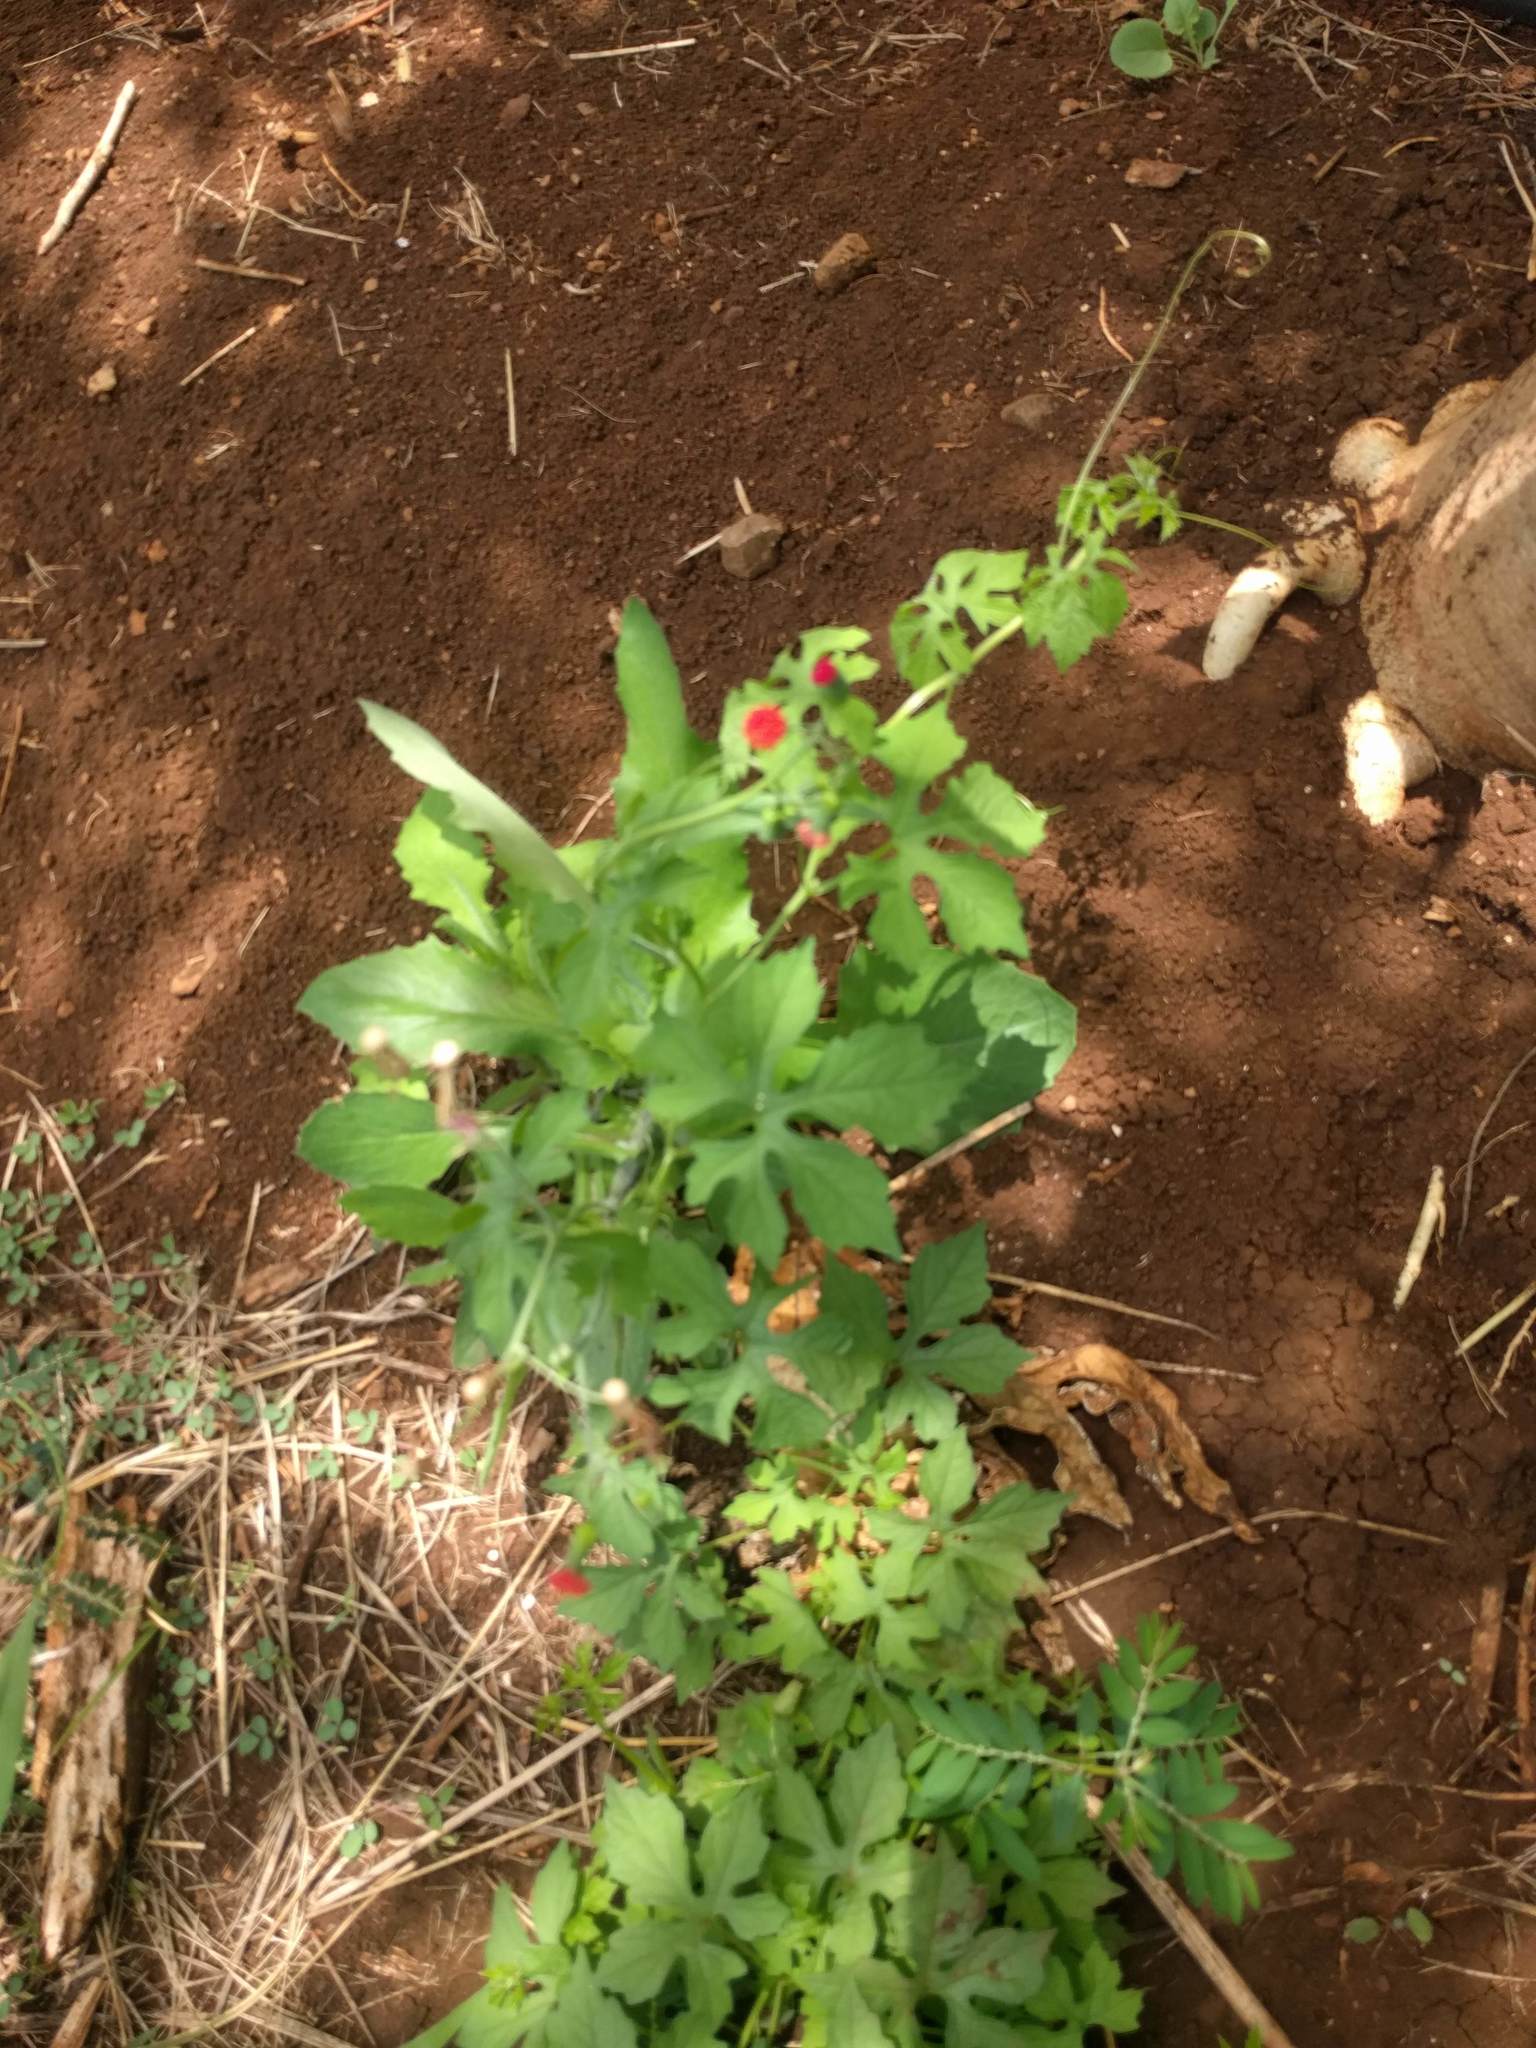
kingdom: Plantae
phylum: Tracheophyta
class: Magnoliopsida
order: Cucurbitales
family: Cucurbitaceae
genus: Momordica
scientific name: Momordica charantia
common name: Balsampear
